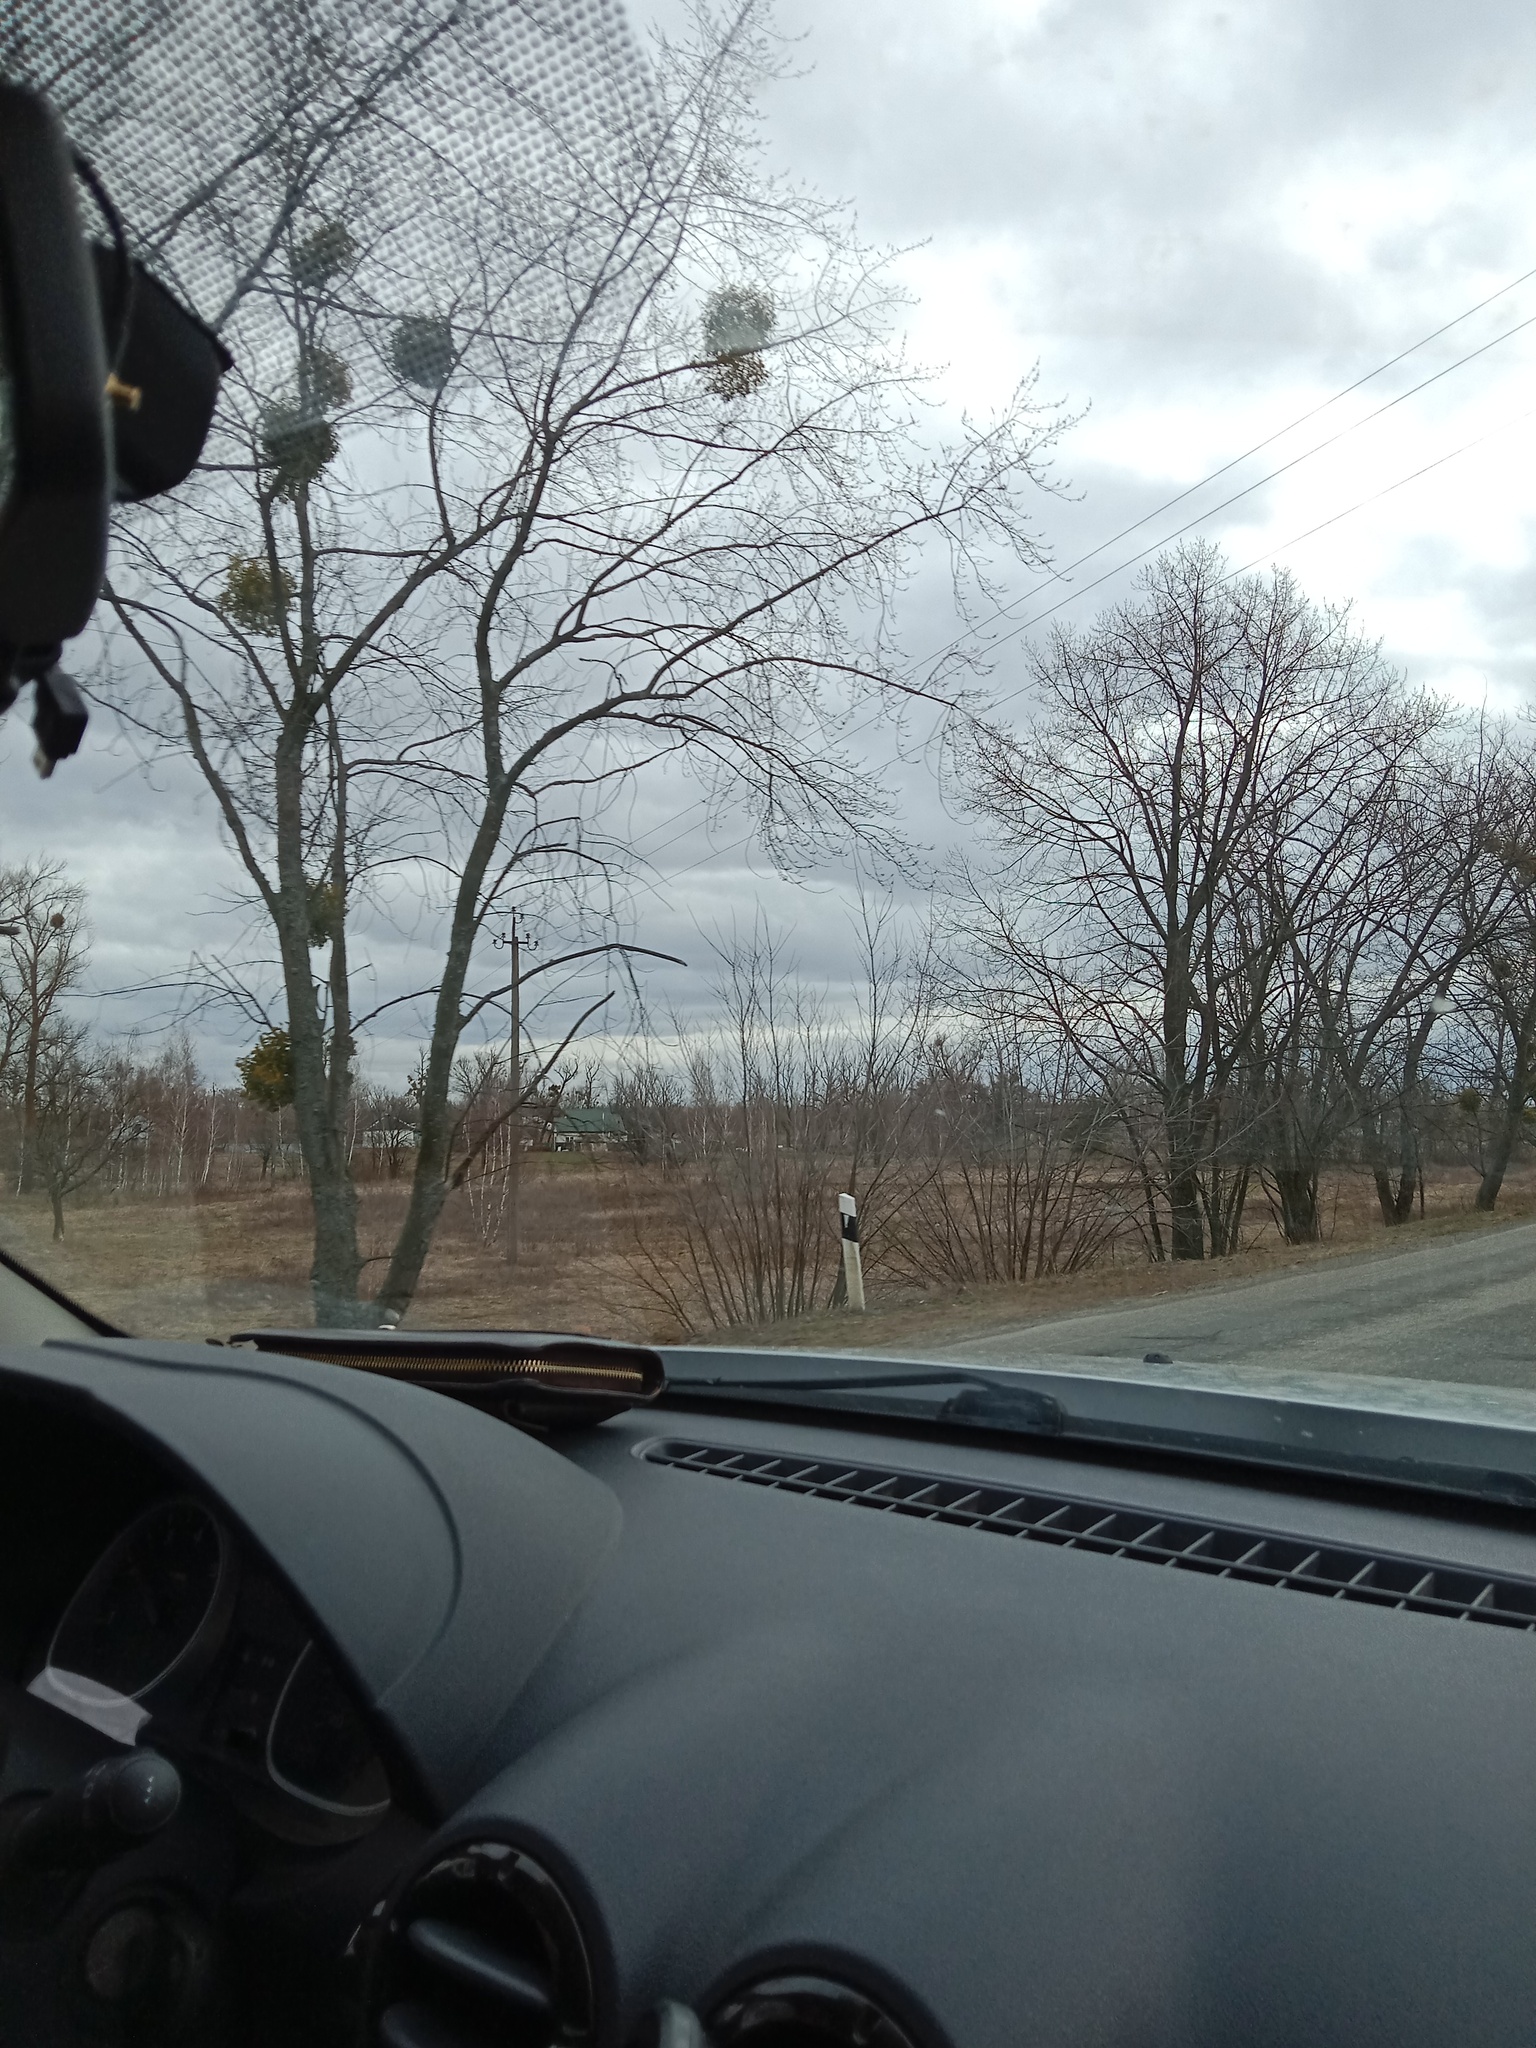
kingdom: Plantae
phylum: Tracheophyta
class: Magnoliopsida
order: Santalales
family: Viscaceae
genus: Viscum
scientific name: Viscum album
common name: Mistletoe
